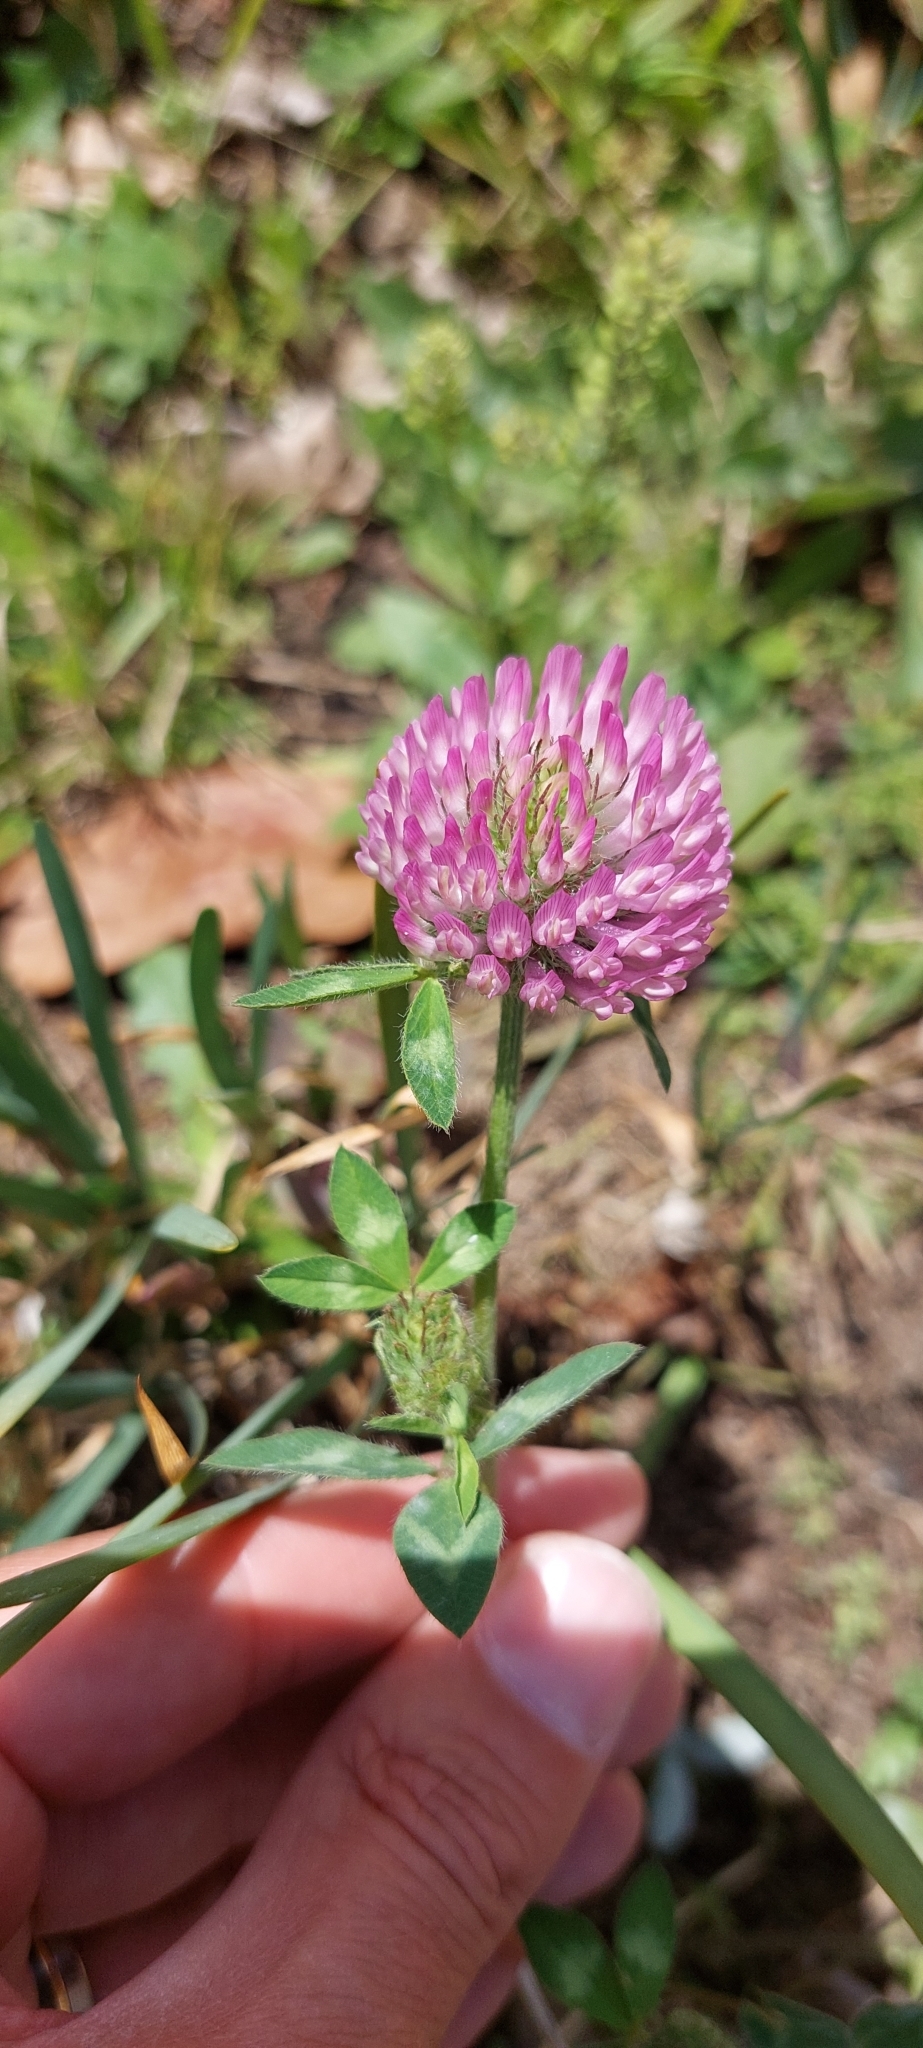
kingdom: Plantae
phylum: Tracheophyta
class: Magnoliopsida
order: Fabales
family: Fabaceae
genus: Trifolium
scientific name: Trifolium pratense
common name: Red clover
